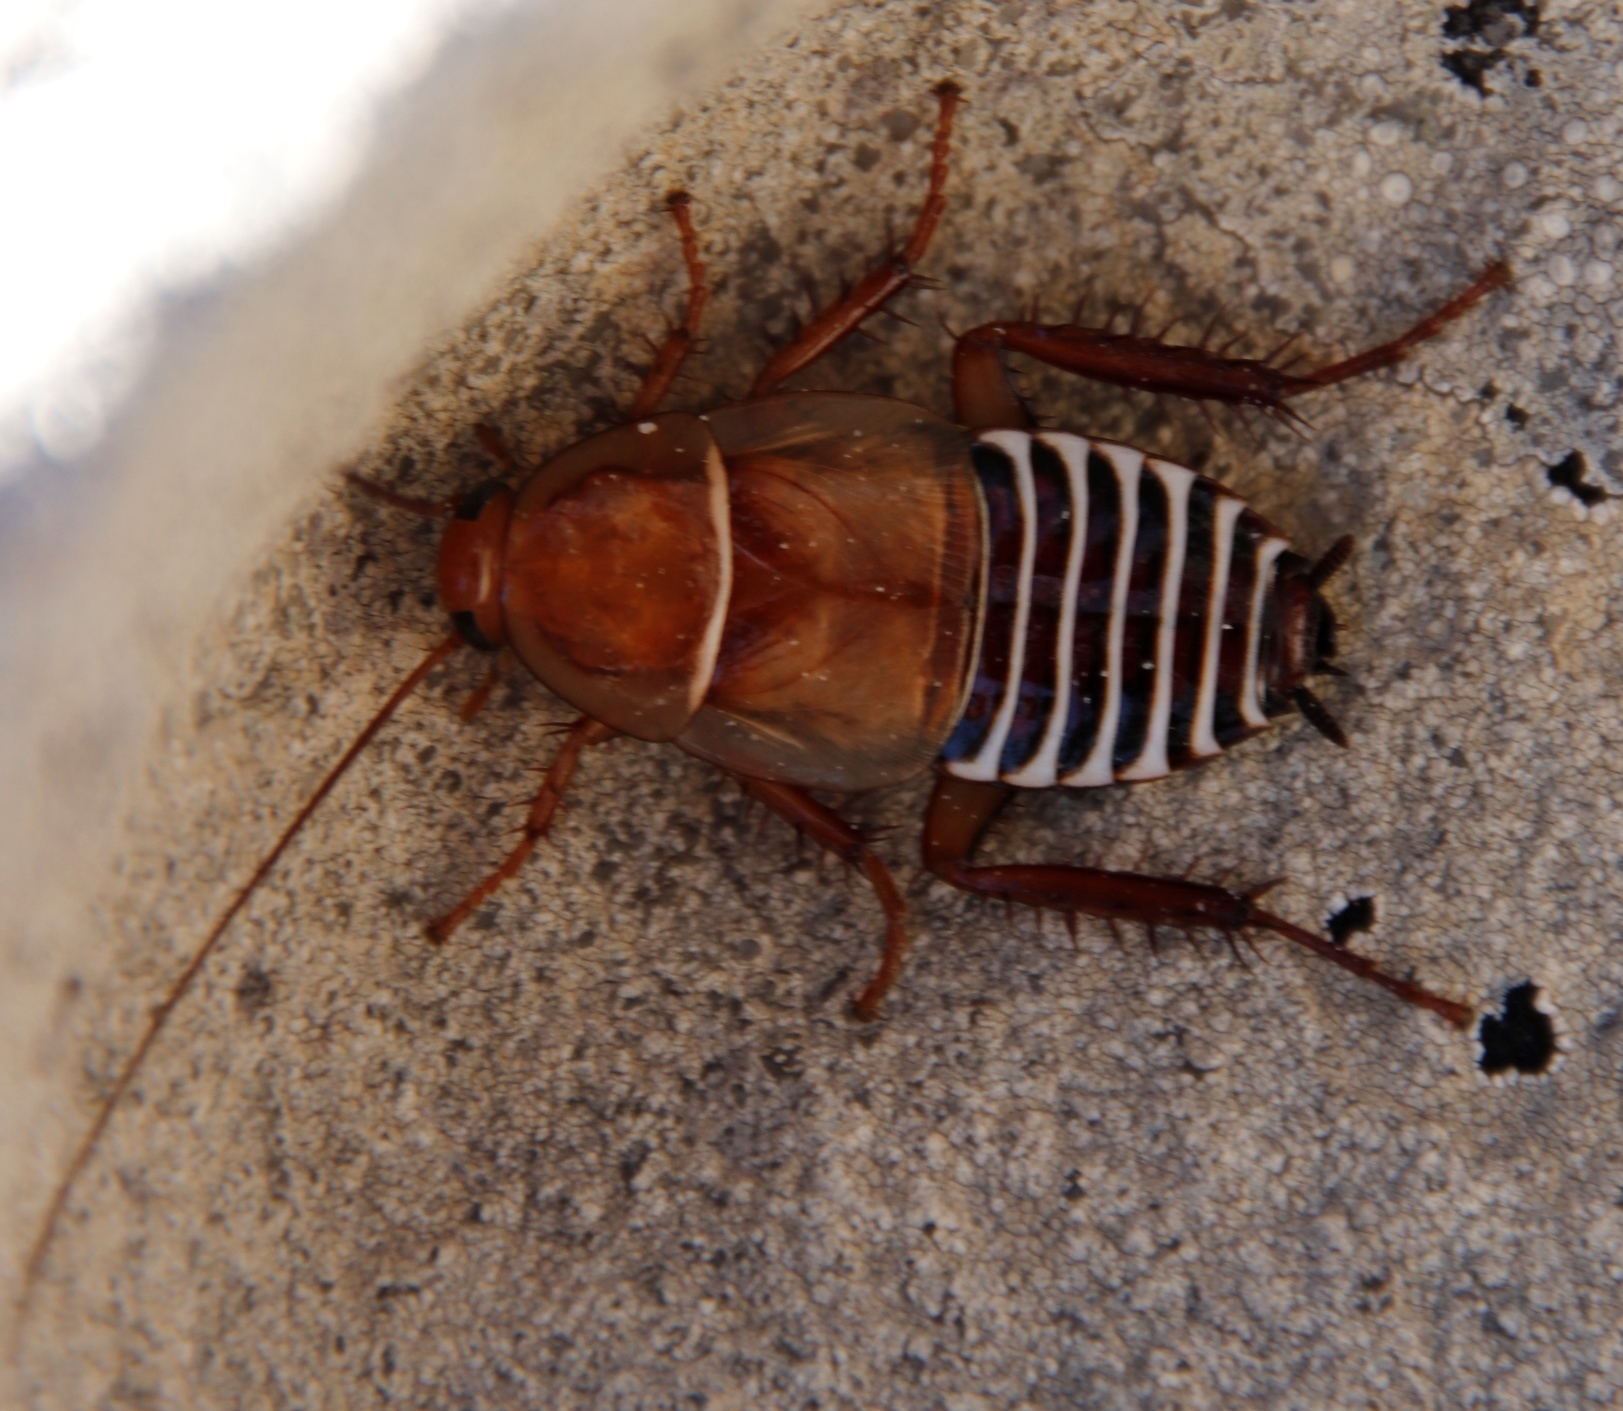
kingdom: Animalia
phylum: Arthropoda
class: Insecta
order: Blattodea
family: Ectobiidae
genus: Temnopteryx
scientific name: Temnopteryx phalerata
